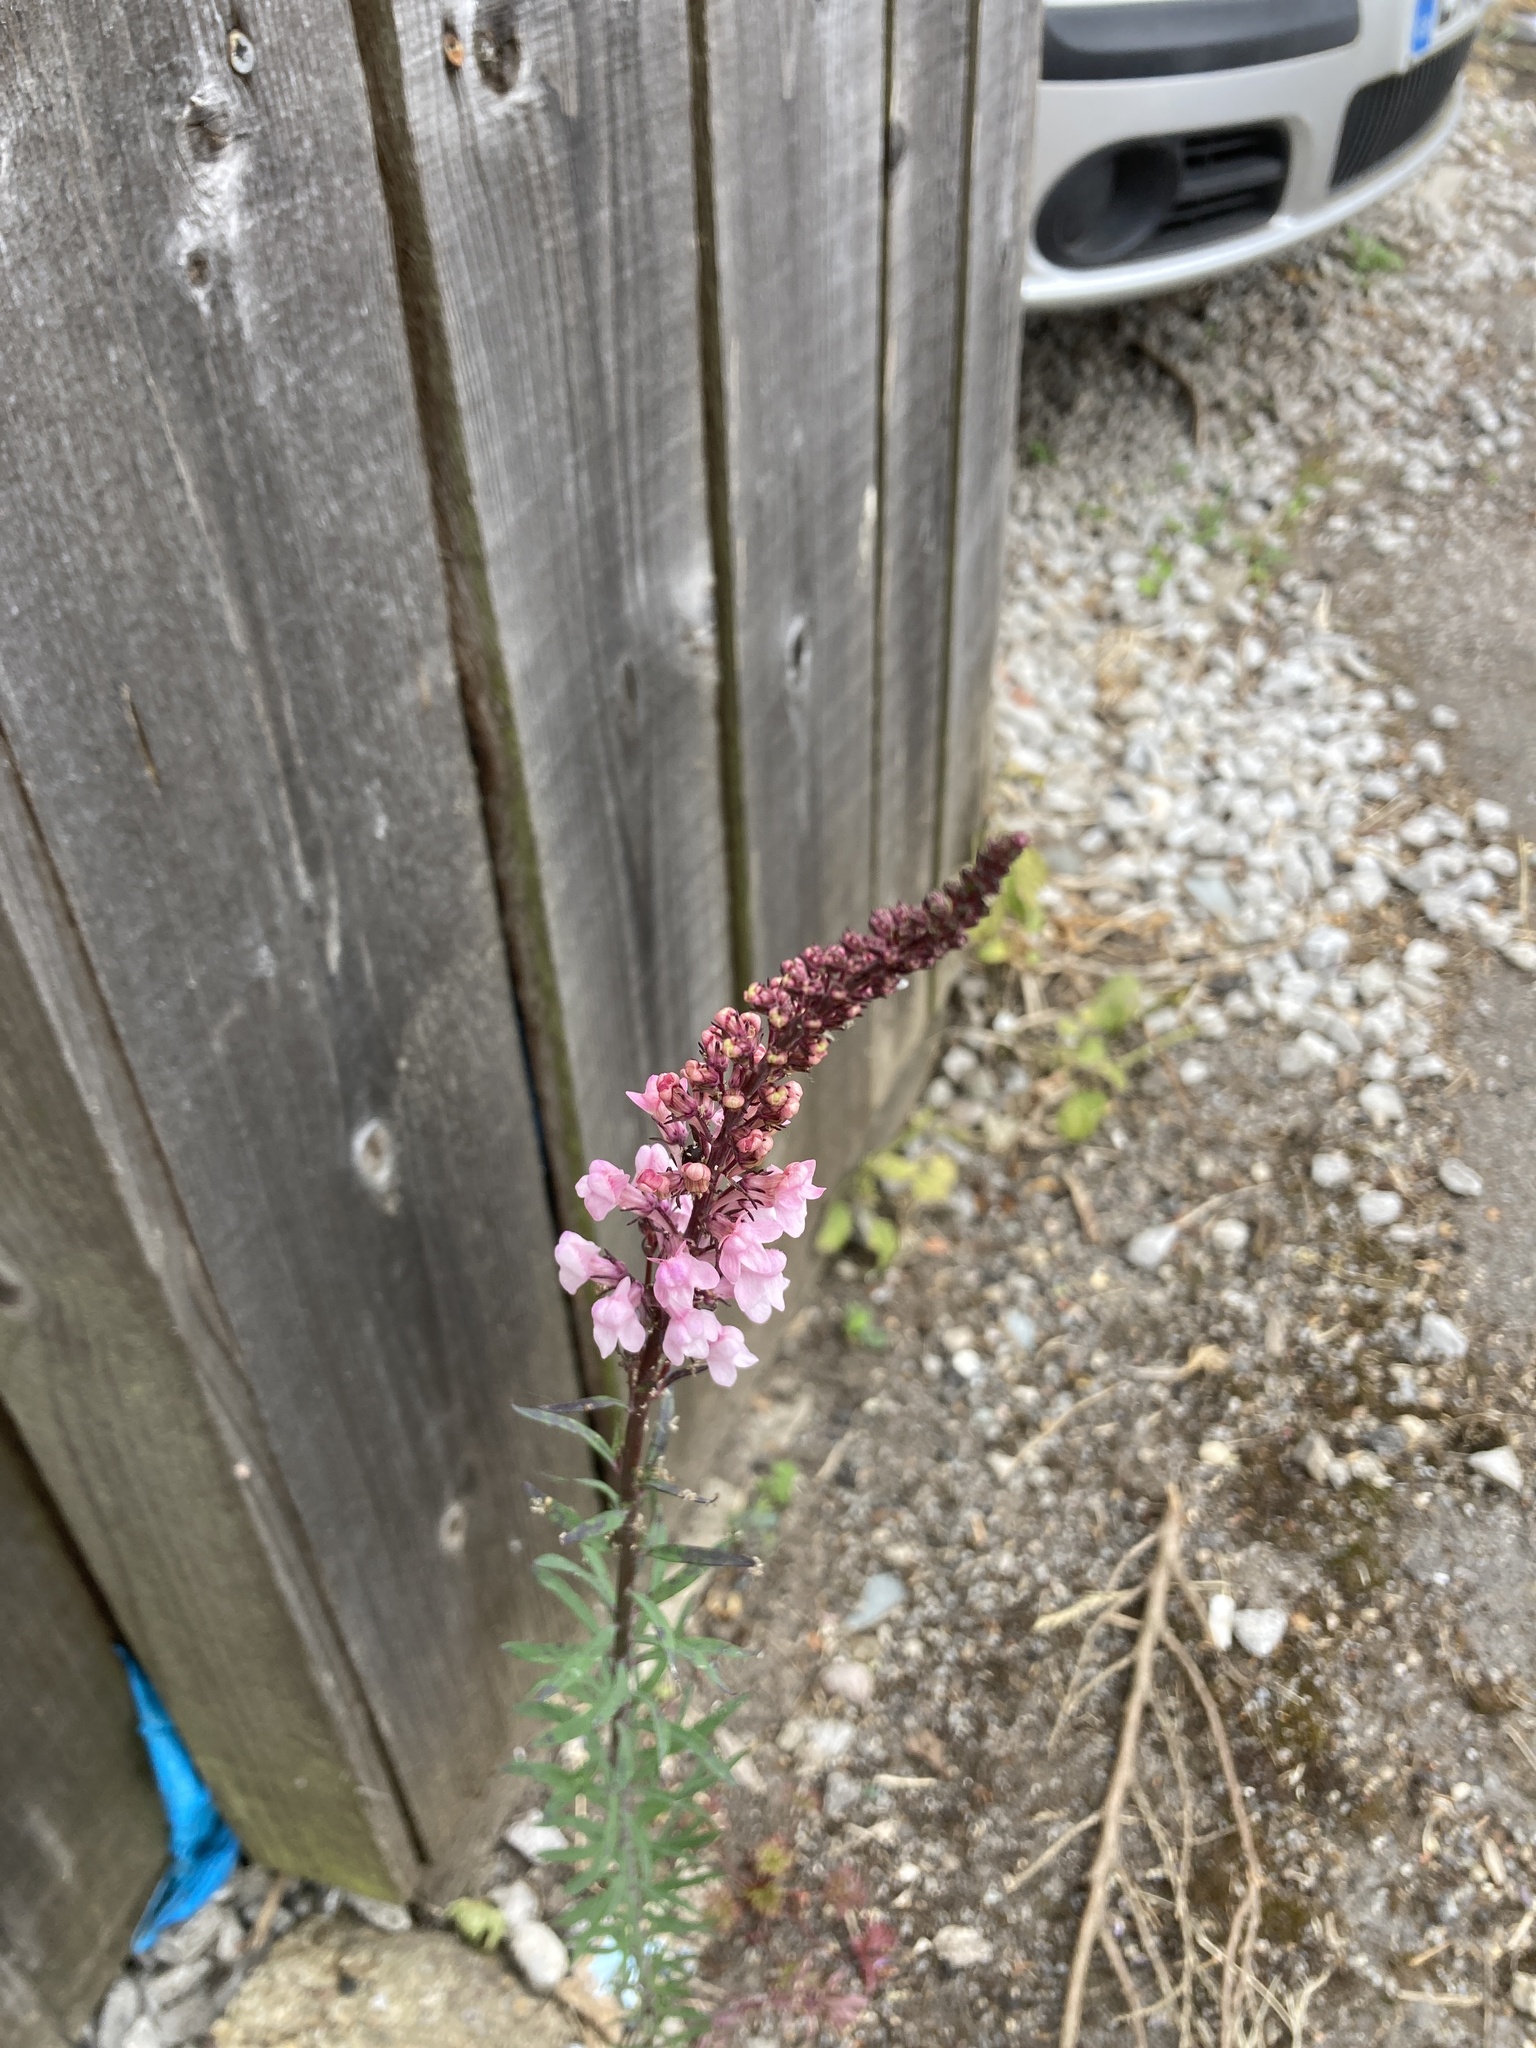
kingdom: Plantae
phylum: Tracheophyta
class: Magnoliopsida
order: Lamiales
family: Plantaginaceae
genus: Linaria
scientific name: Linaria purpurea
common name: Purple toadflax
